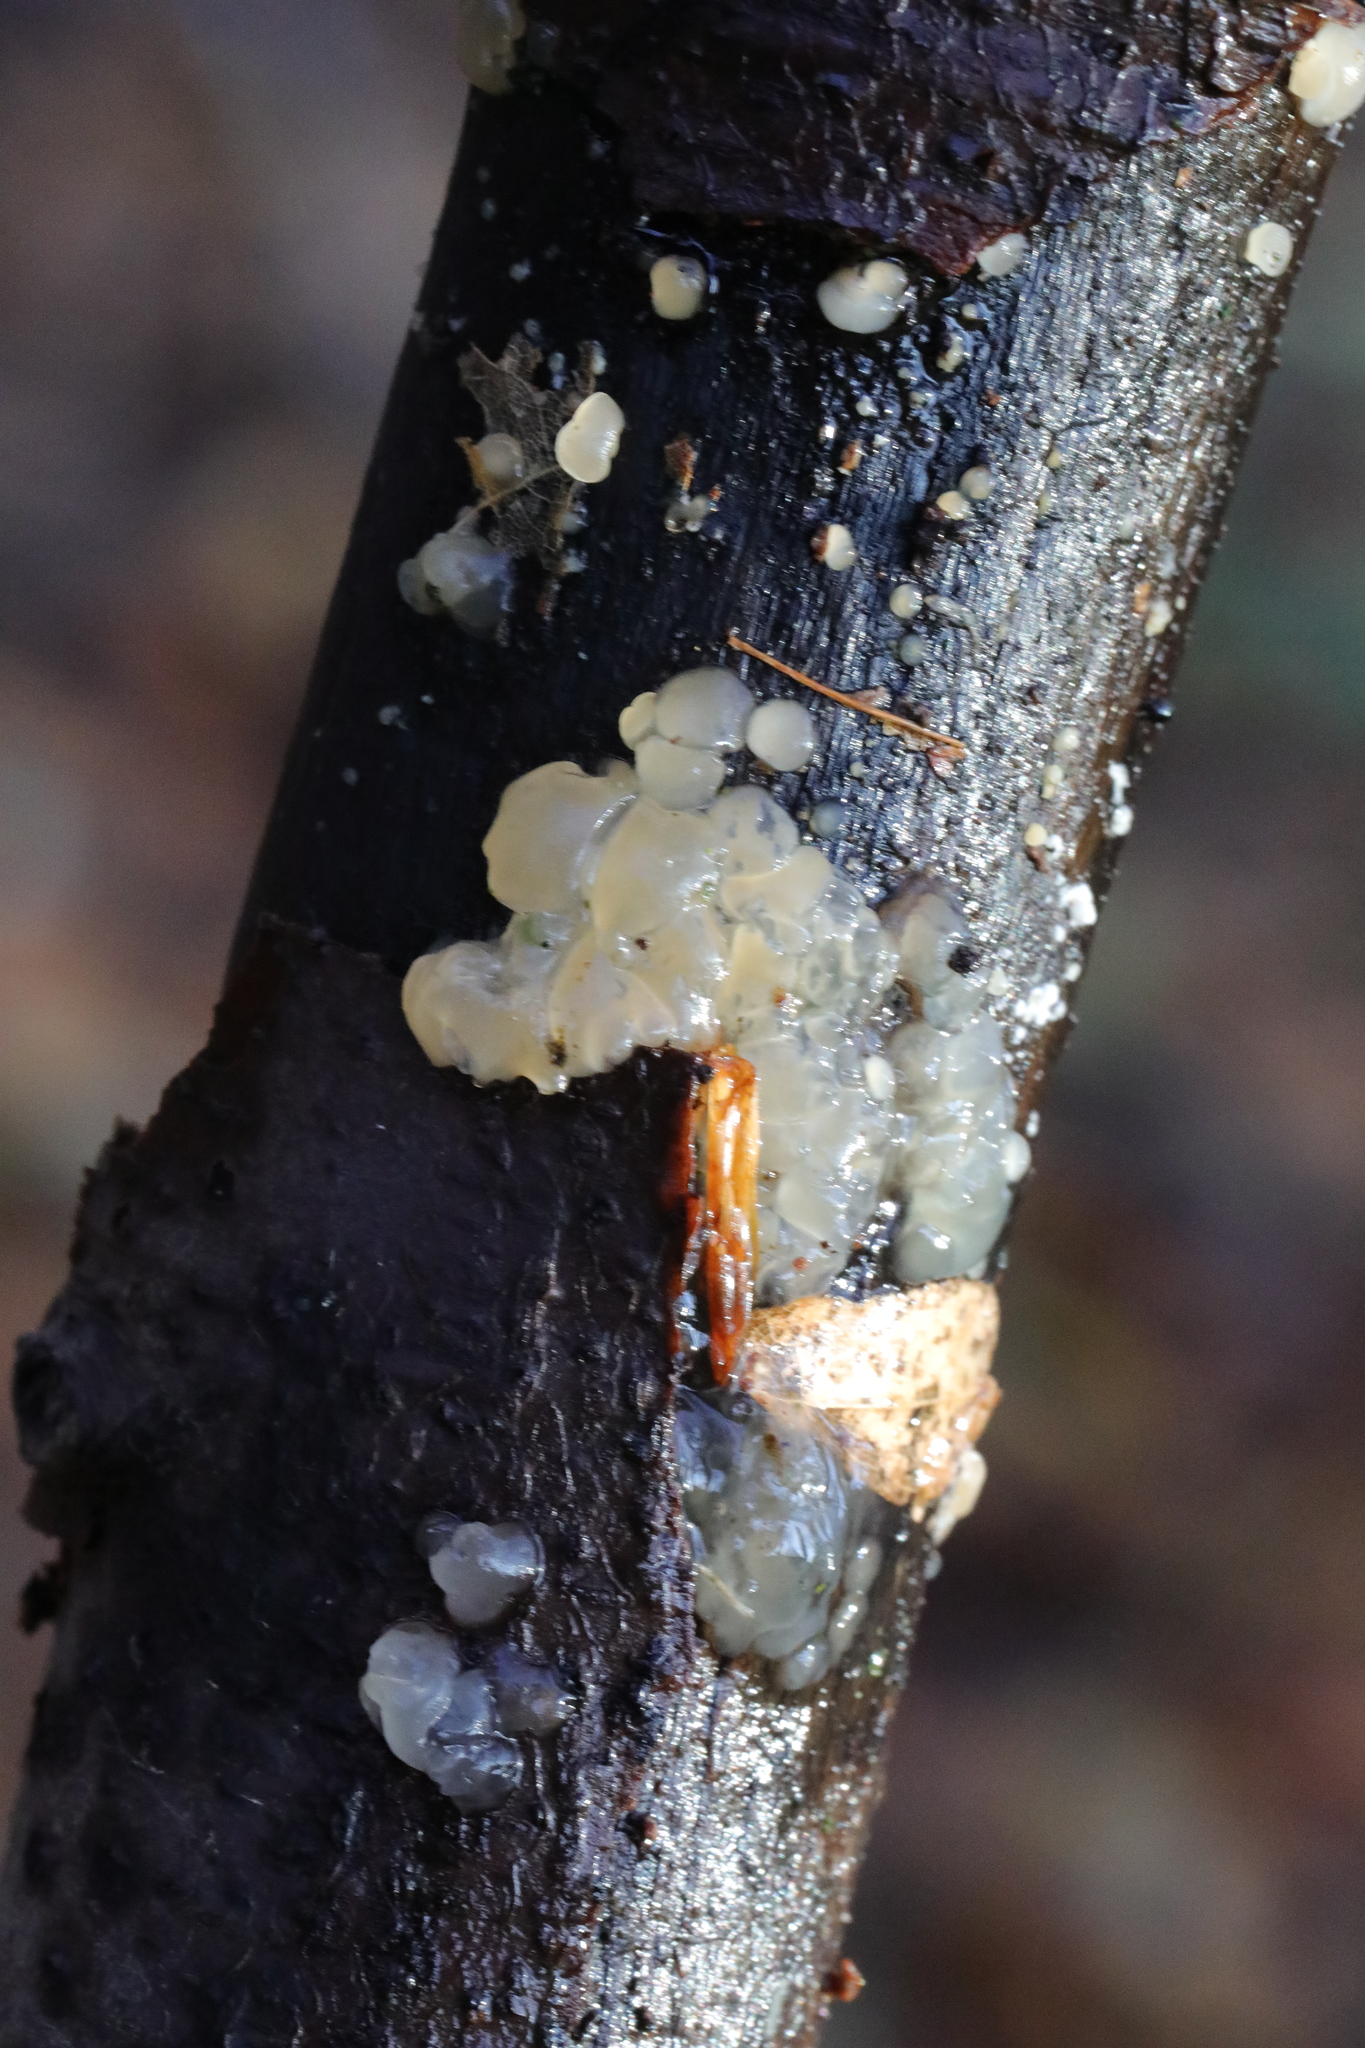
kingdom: Fungi
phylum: Basidiomycota
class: Agaricomycetes
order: Auriculariales
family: Hyaloriaceae
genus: Myxarium
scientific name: Myxarium nucleatum
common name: Crystal brain fungus
